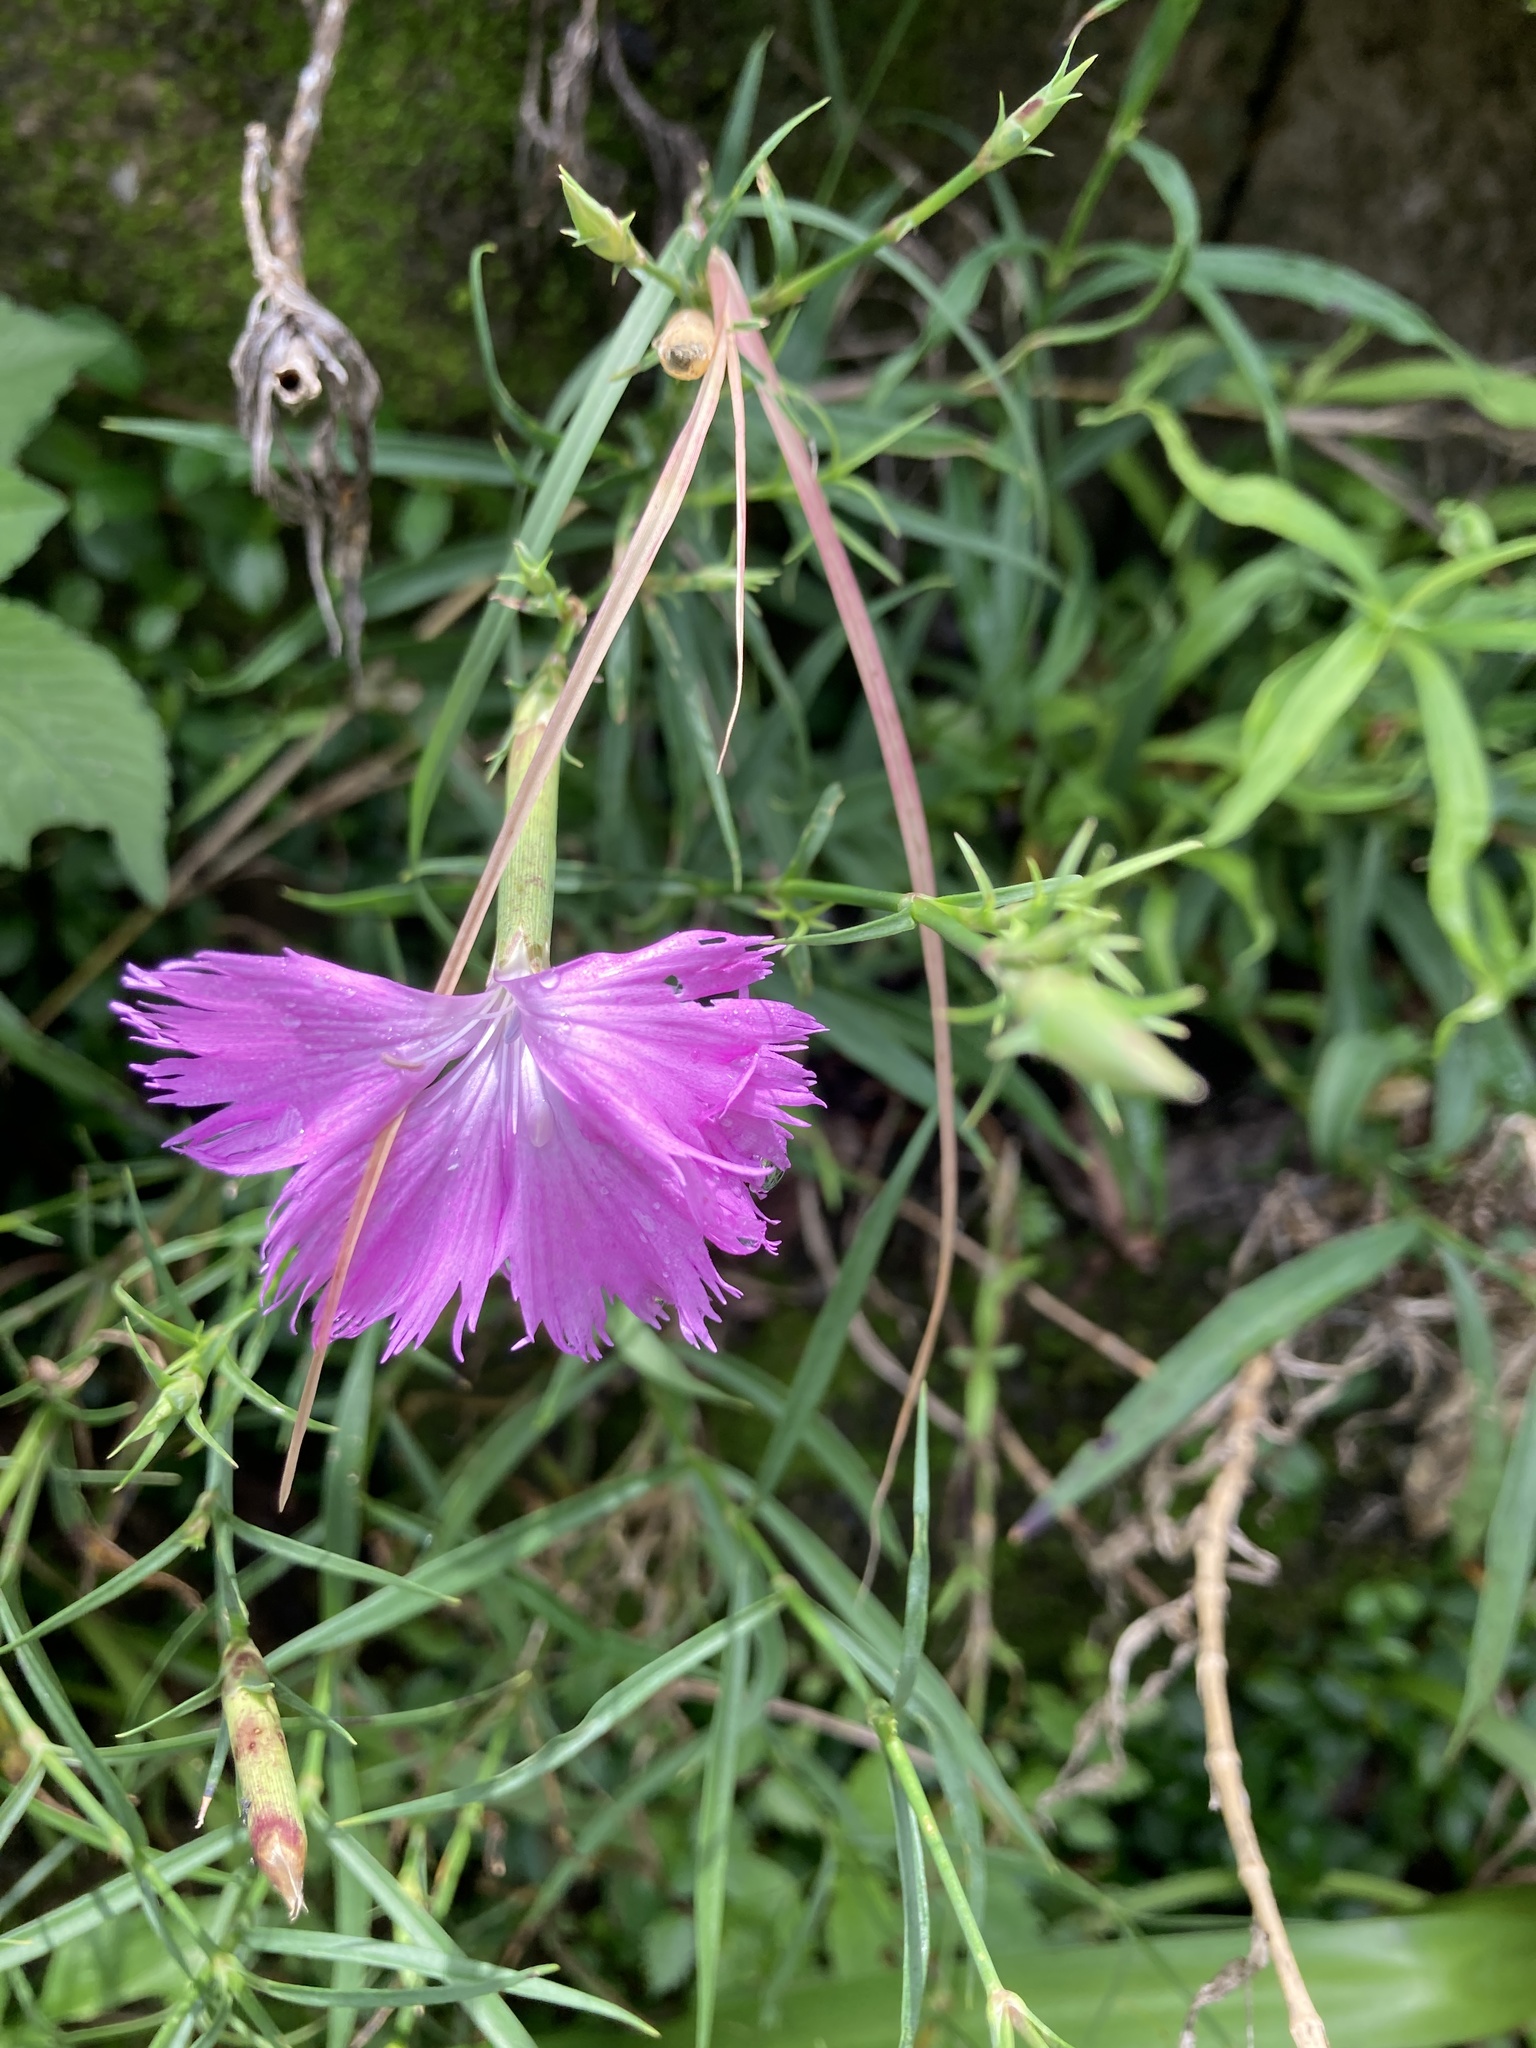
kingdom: Plantae
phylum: Tracheophyta
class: Magnoliopsida
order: Caryophyllales
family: Caryophyllaceae
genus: Dianthus
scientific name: Dianthus palinensis
